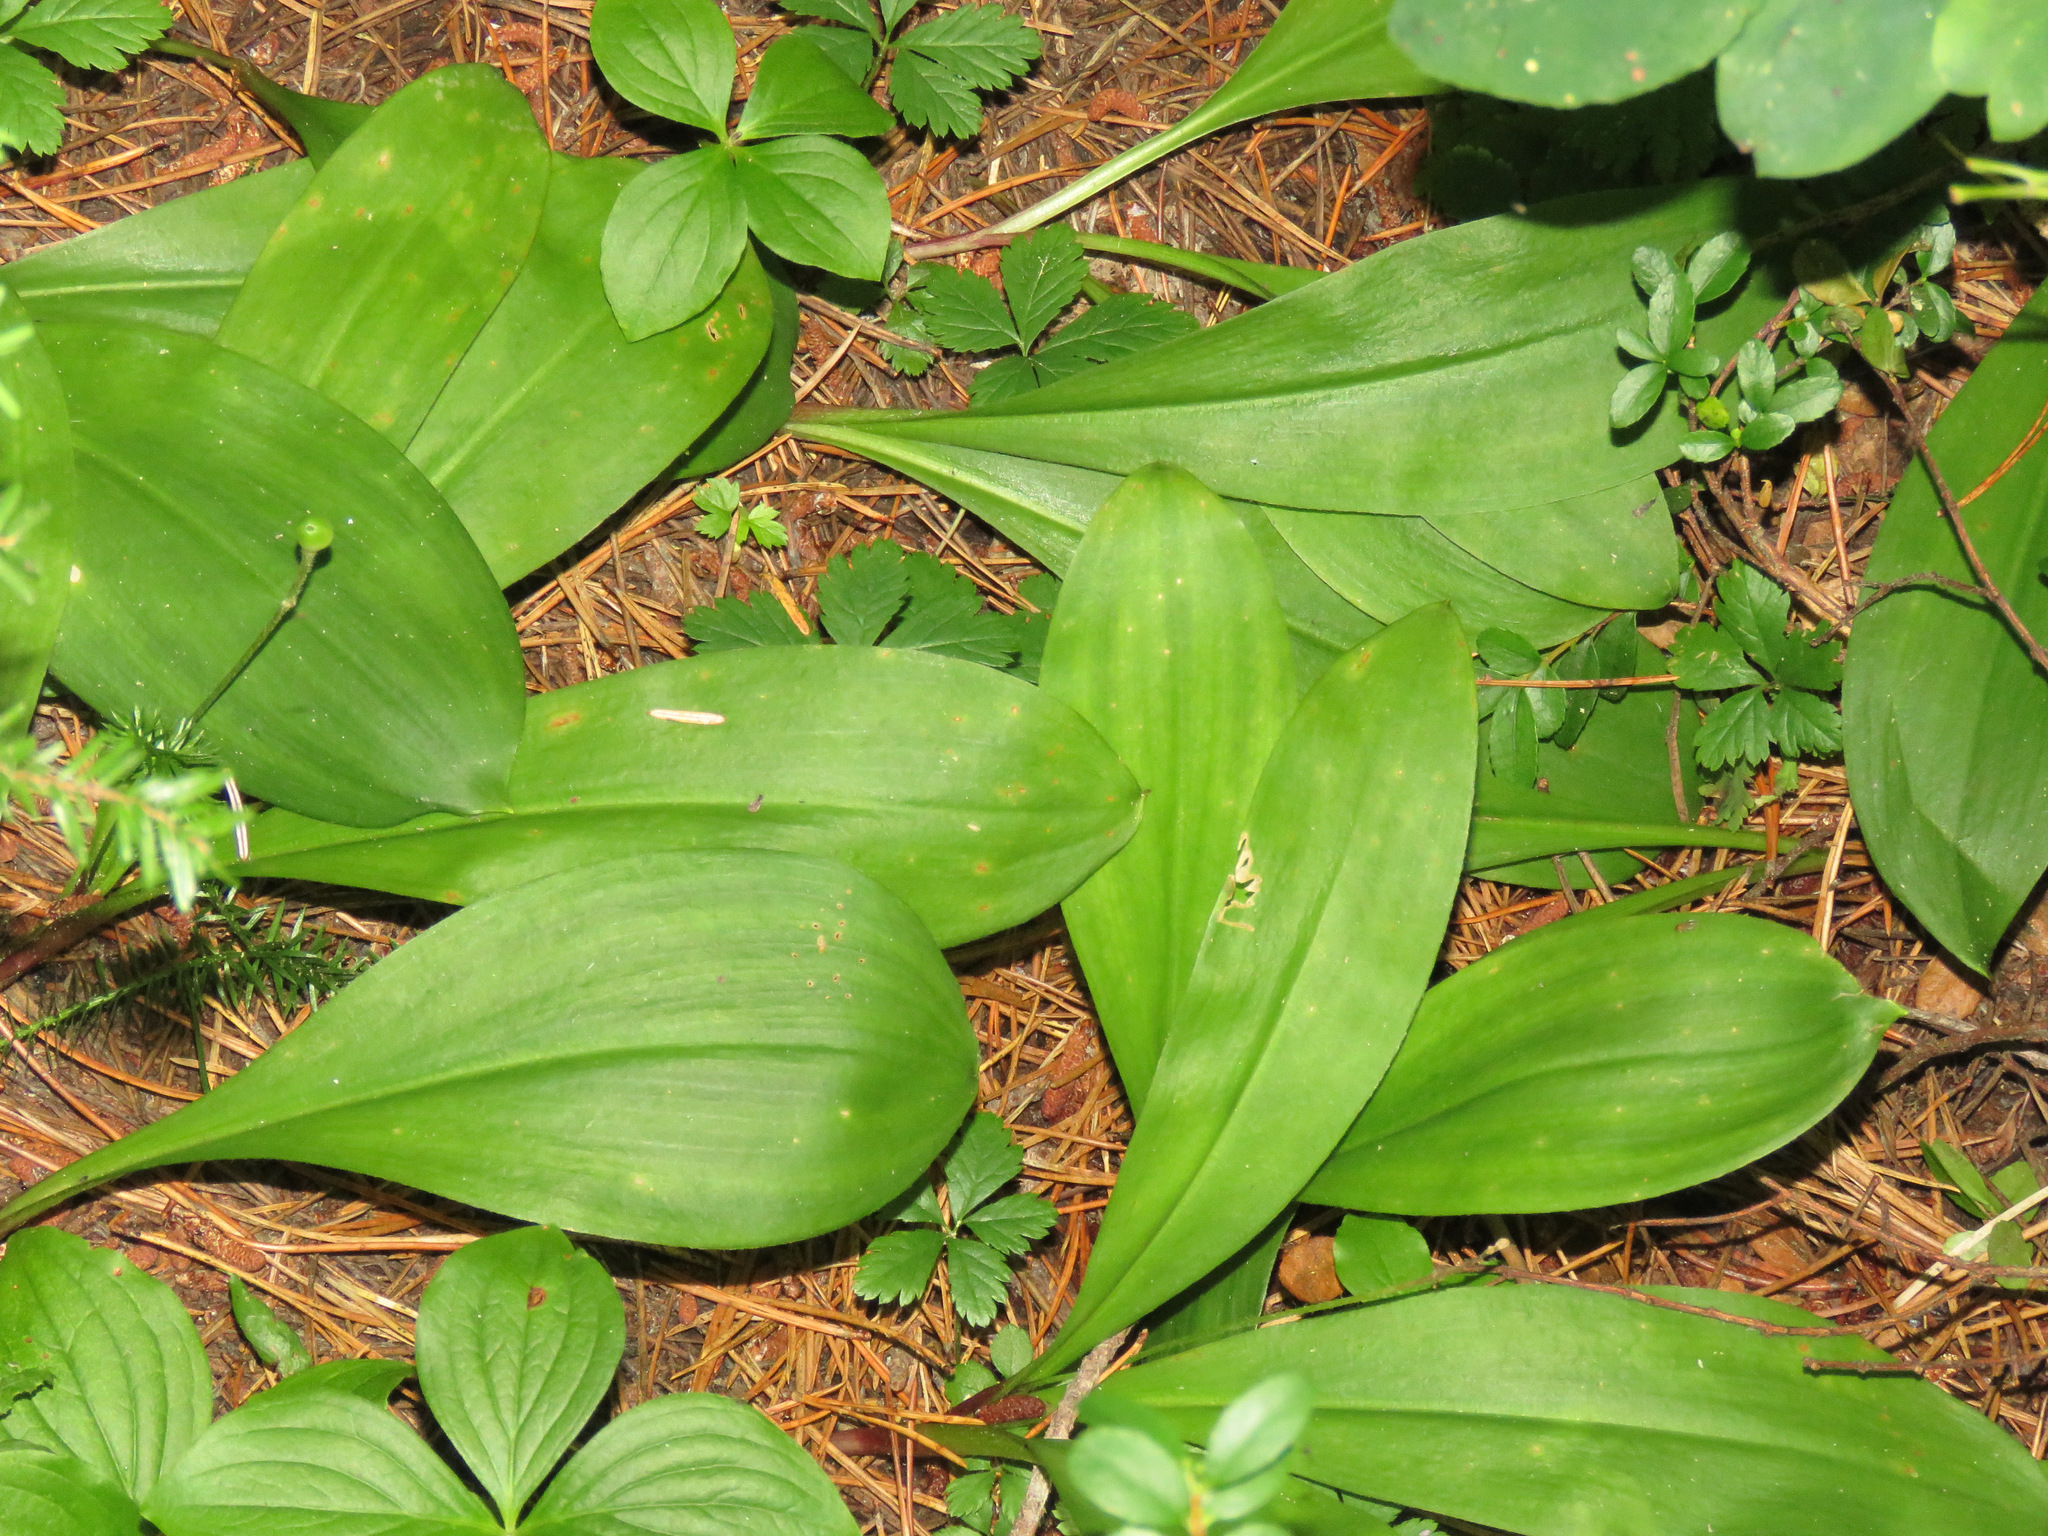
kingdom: Plantae
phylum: Tracheophyta
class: Liliopsida
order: Liliales
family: Liliaceae
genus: Clintonia
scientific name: Clintonia uniflora
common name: Queen's cup
